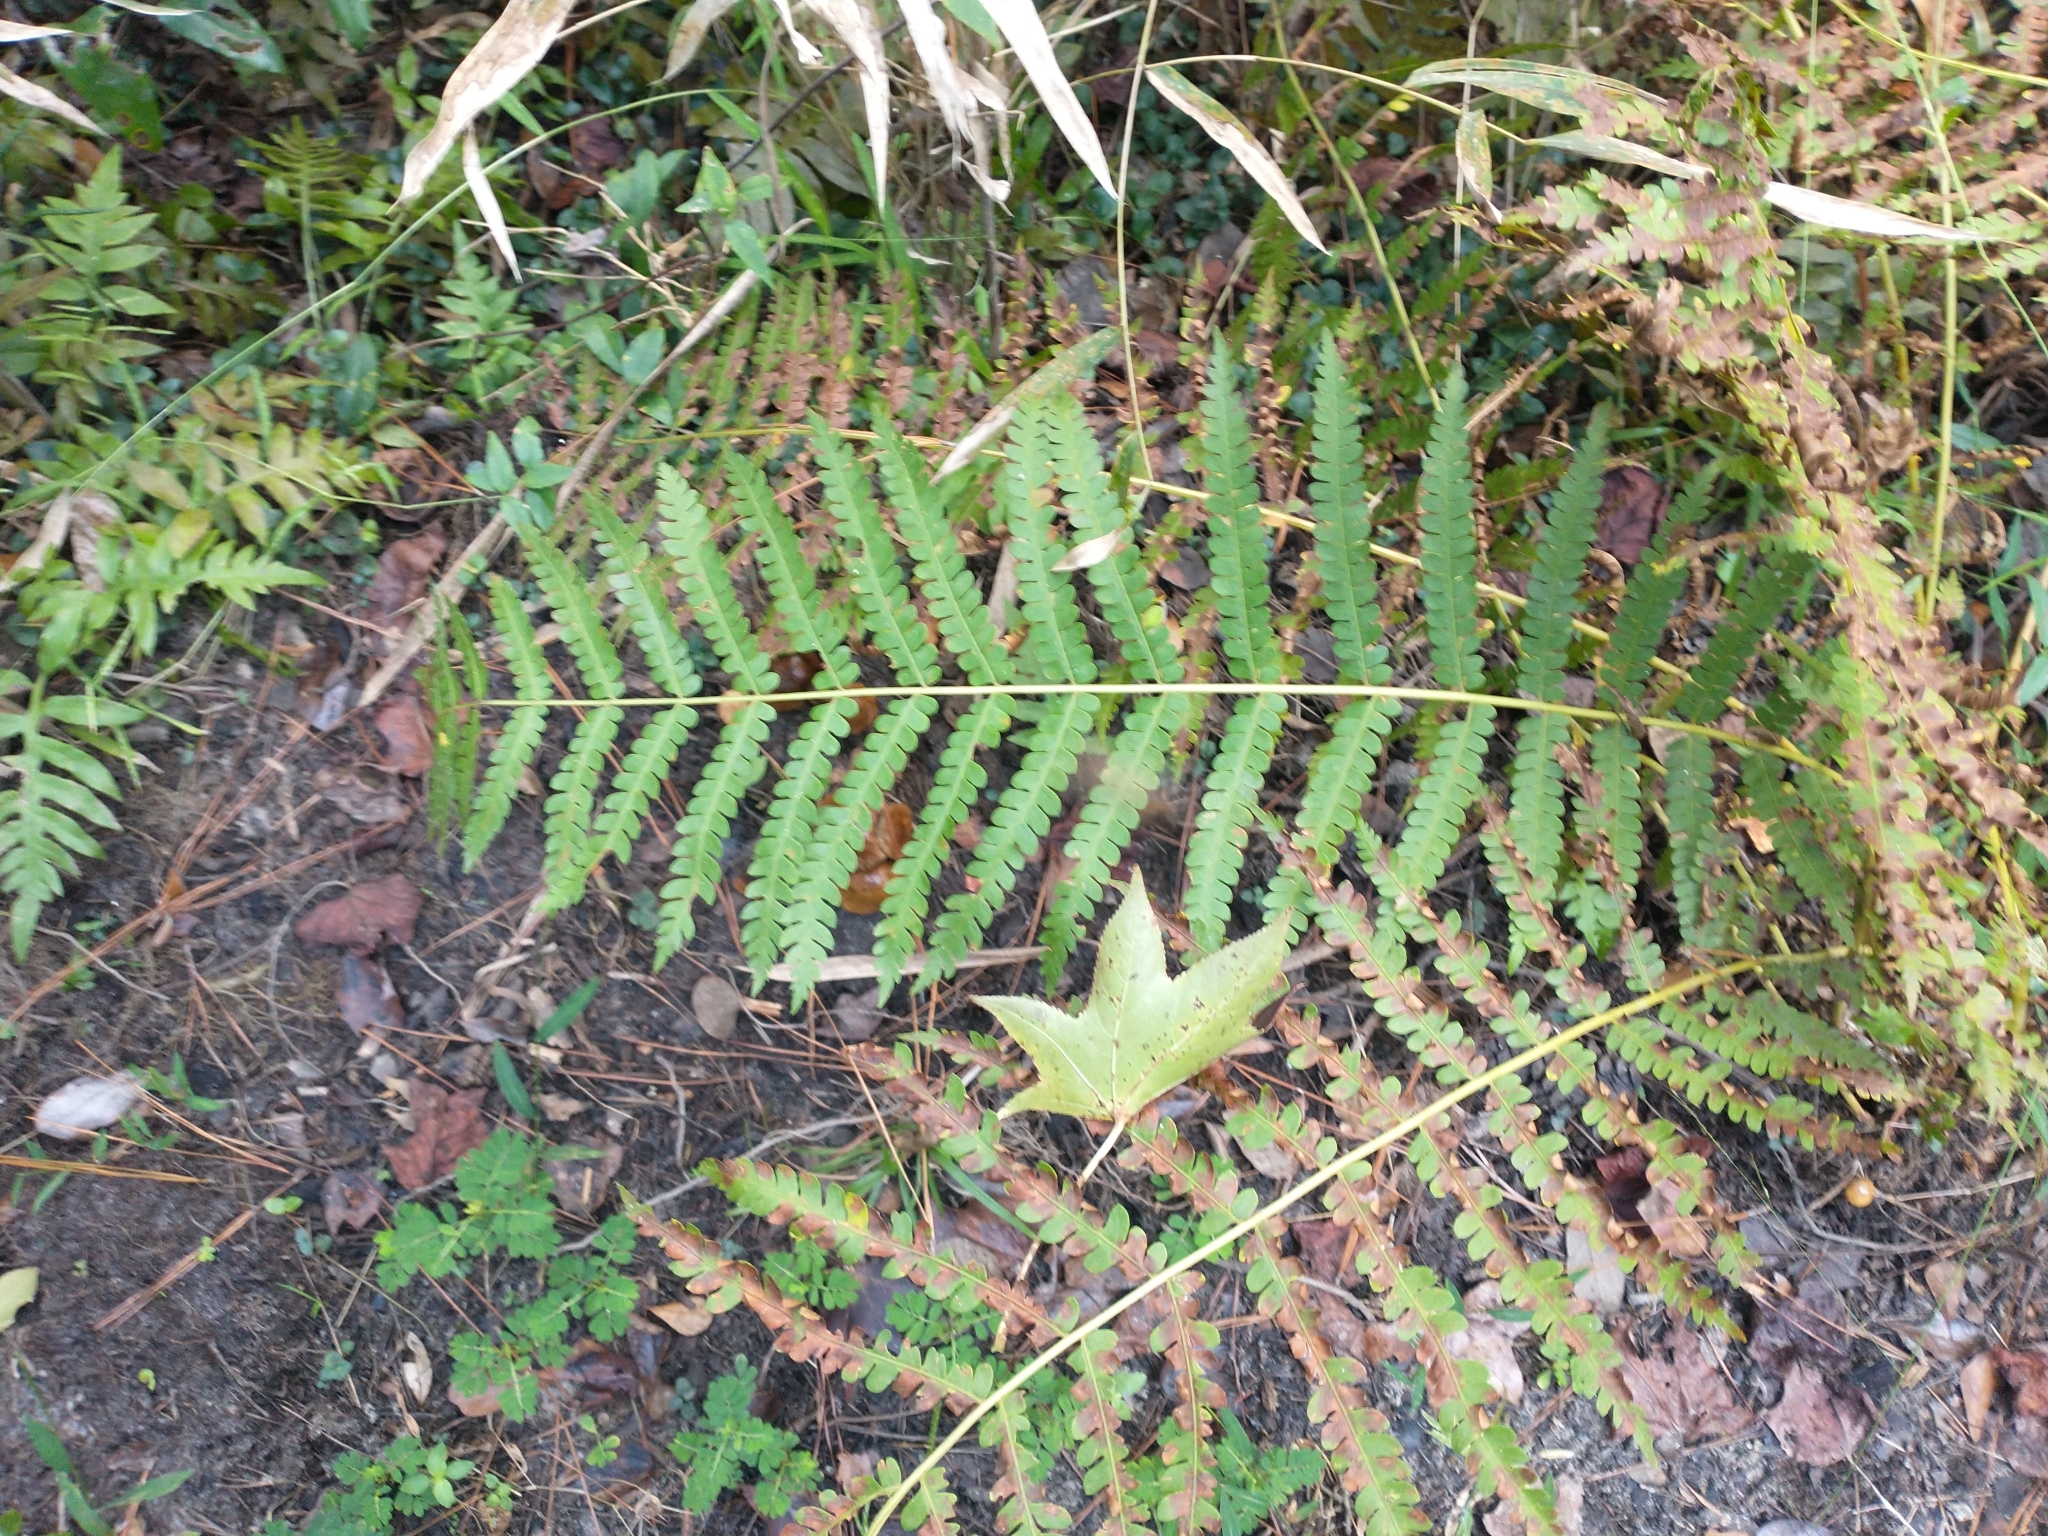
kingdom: Plantae
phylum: Tracheophyta
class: Polypodiopsida
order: Osmundales
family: Osmundaceae
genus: Osmundastrum
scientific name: Osmundastrum cinnamomeum
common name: Cinnamon fern
